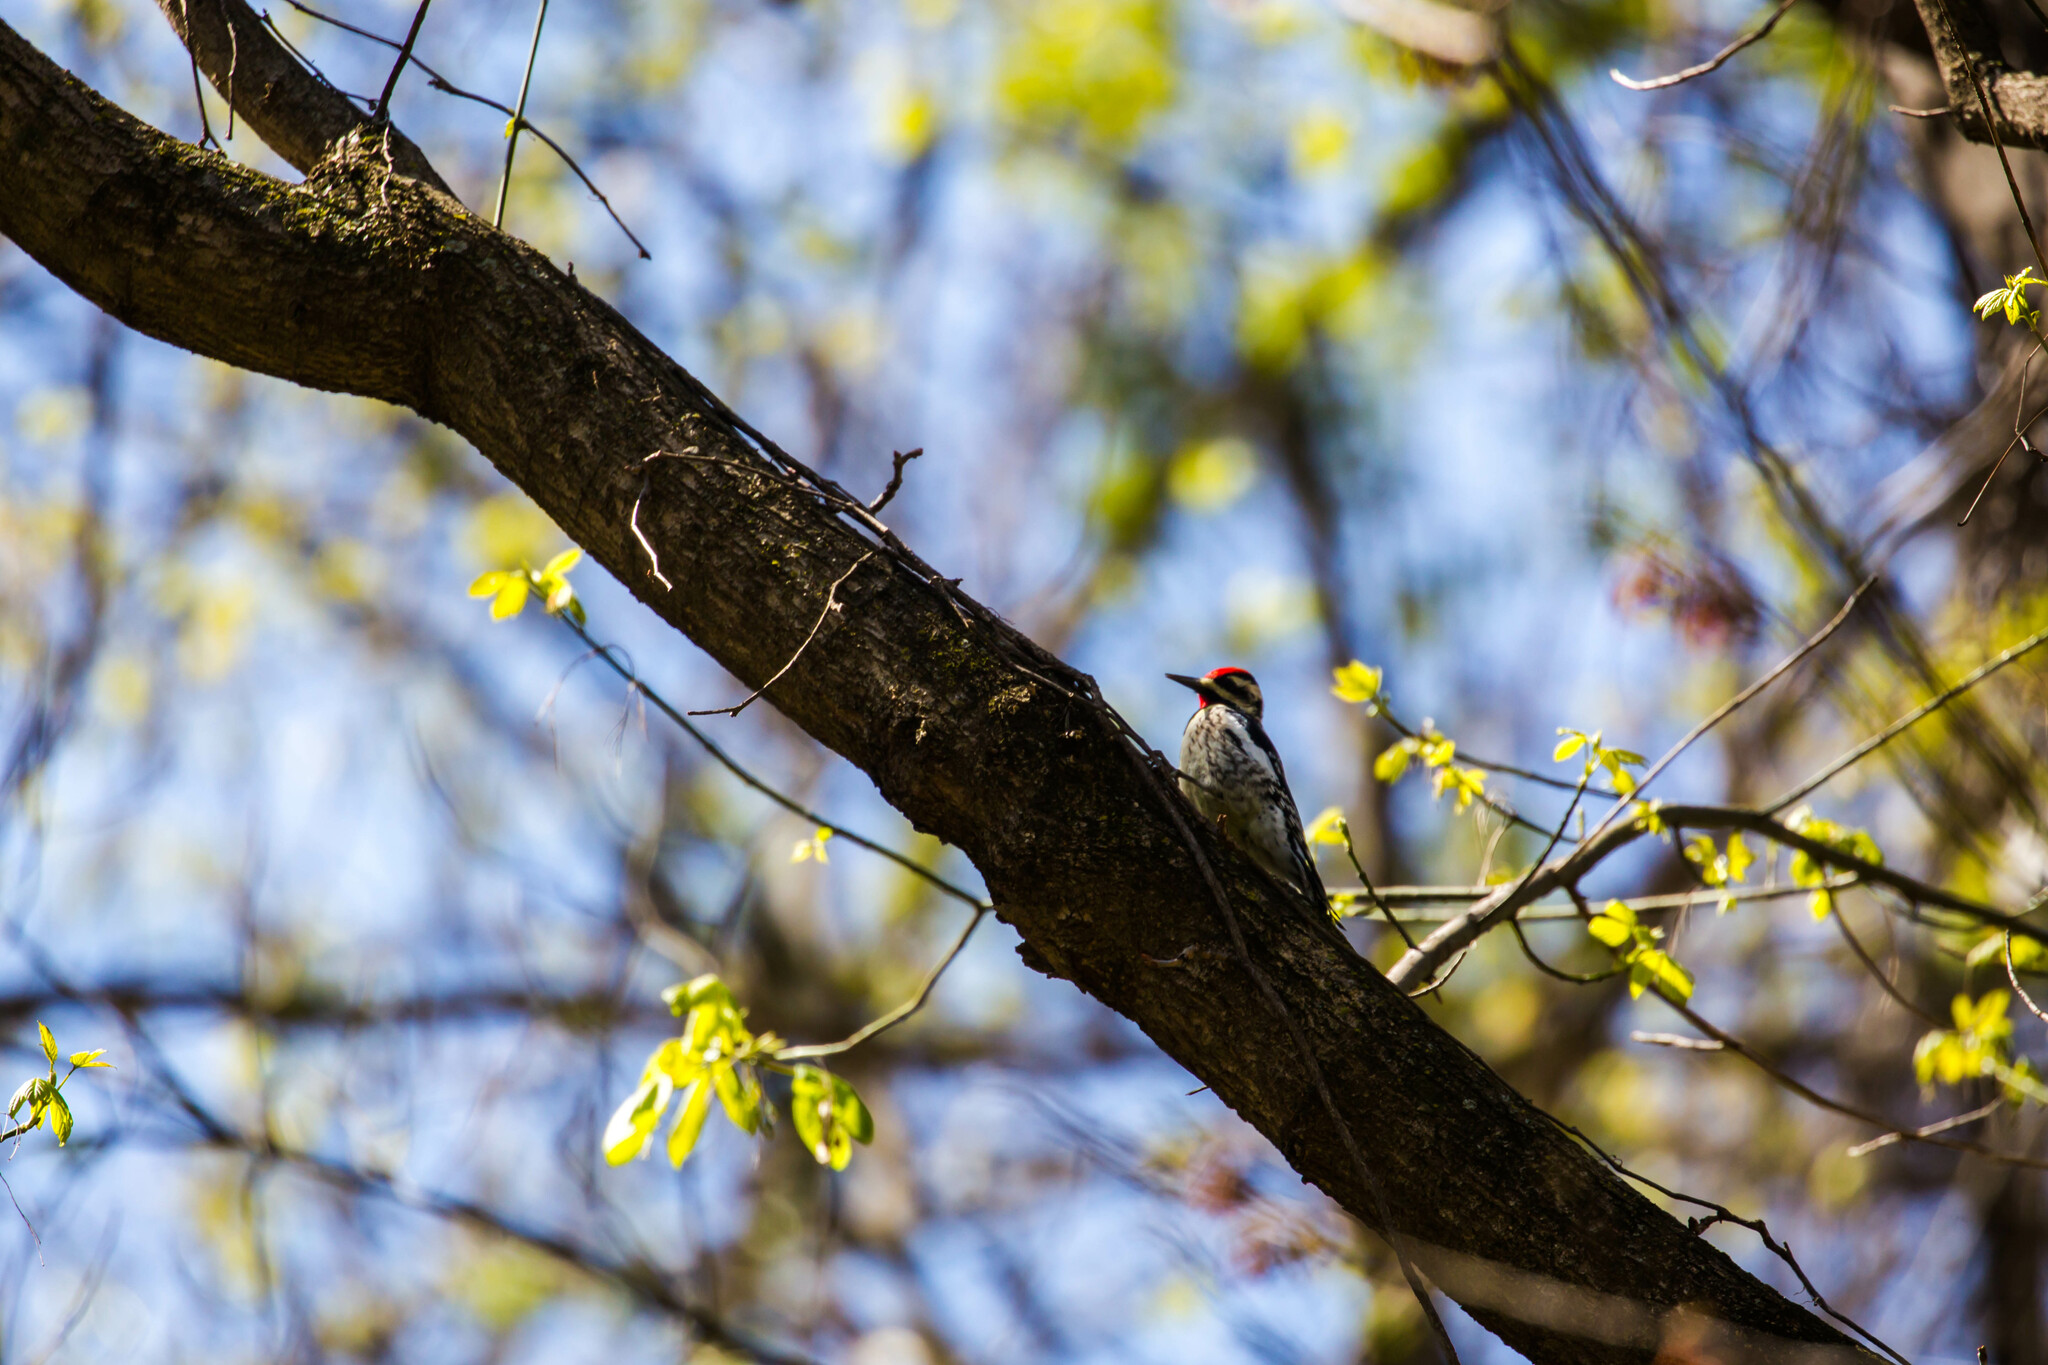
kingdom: Animalia
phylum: Chordata
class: Aves
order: Piciformes
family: Picidae
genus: Sphyrapicus
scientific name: Sphyrapicus varius
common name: Yellow-bellied sapsucker
